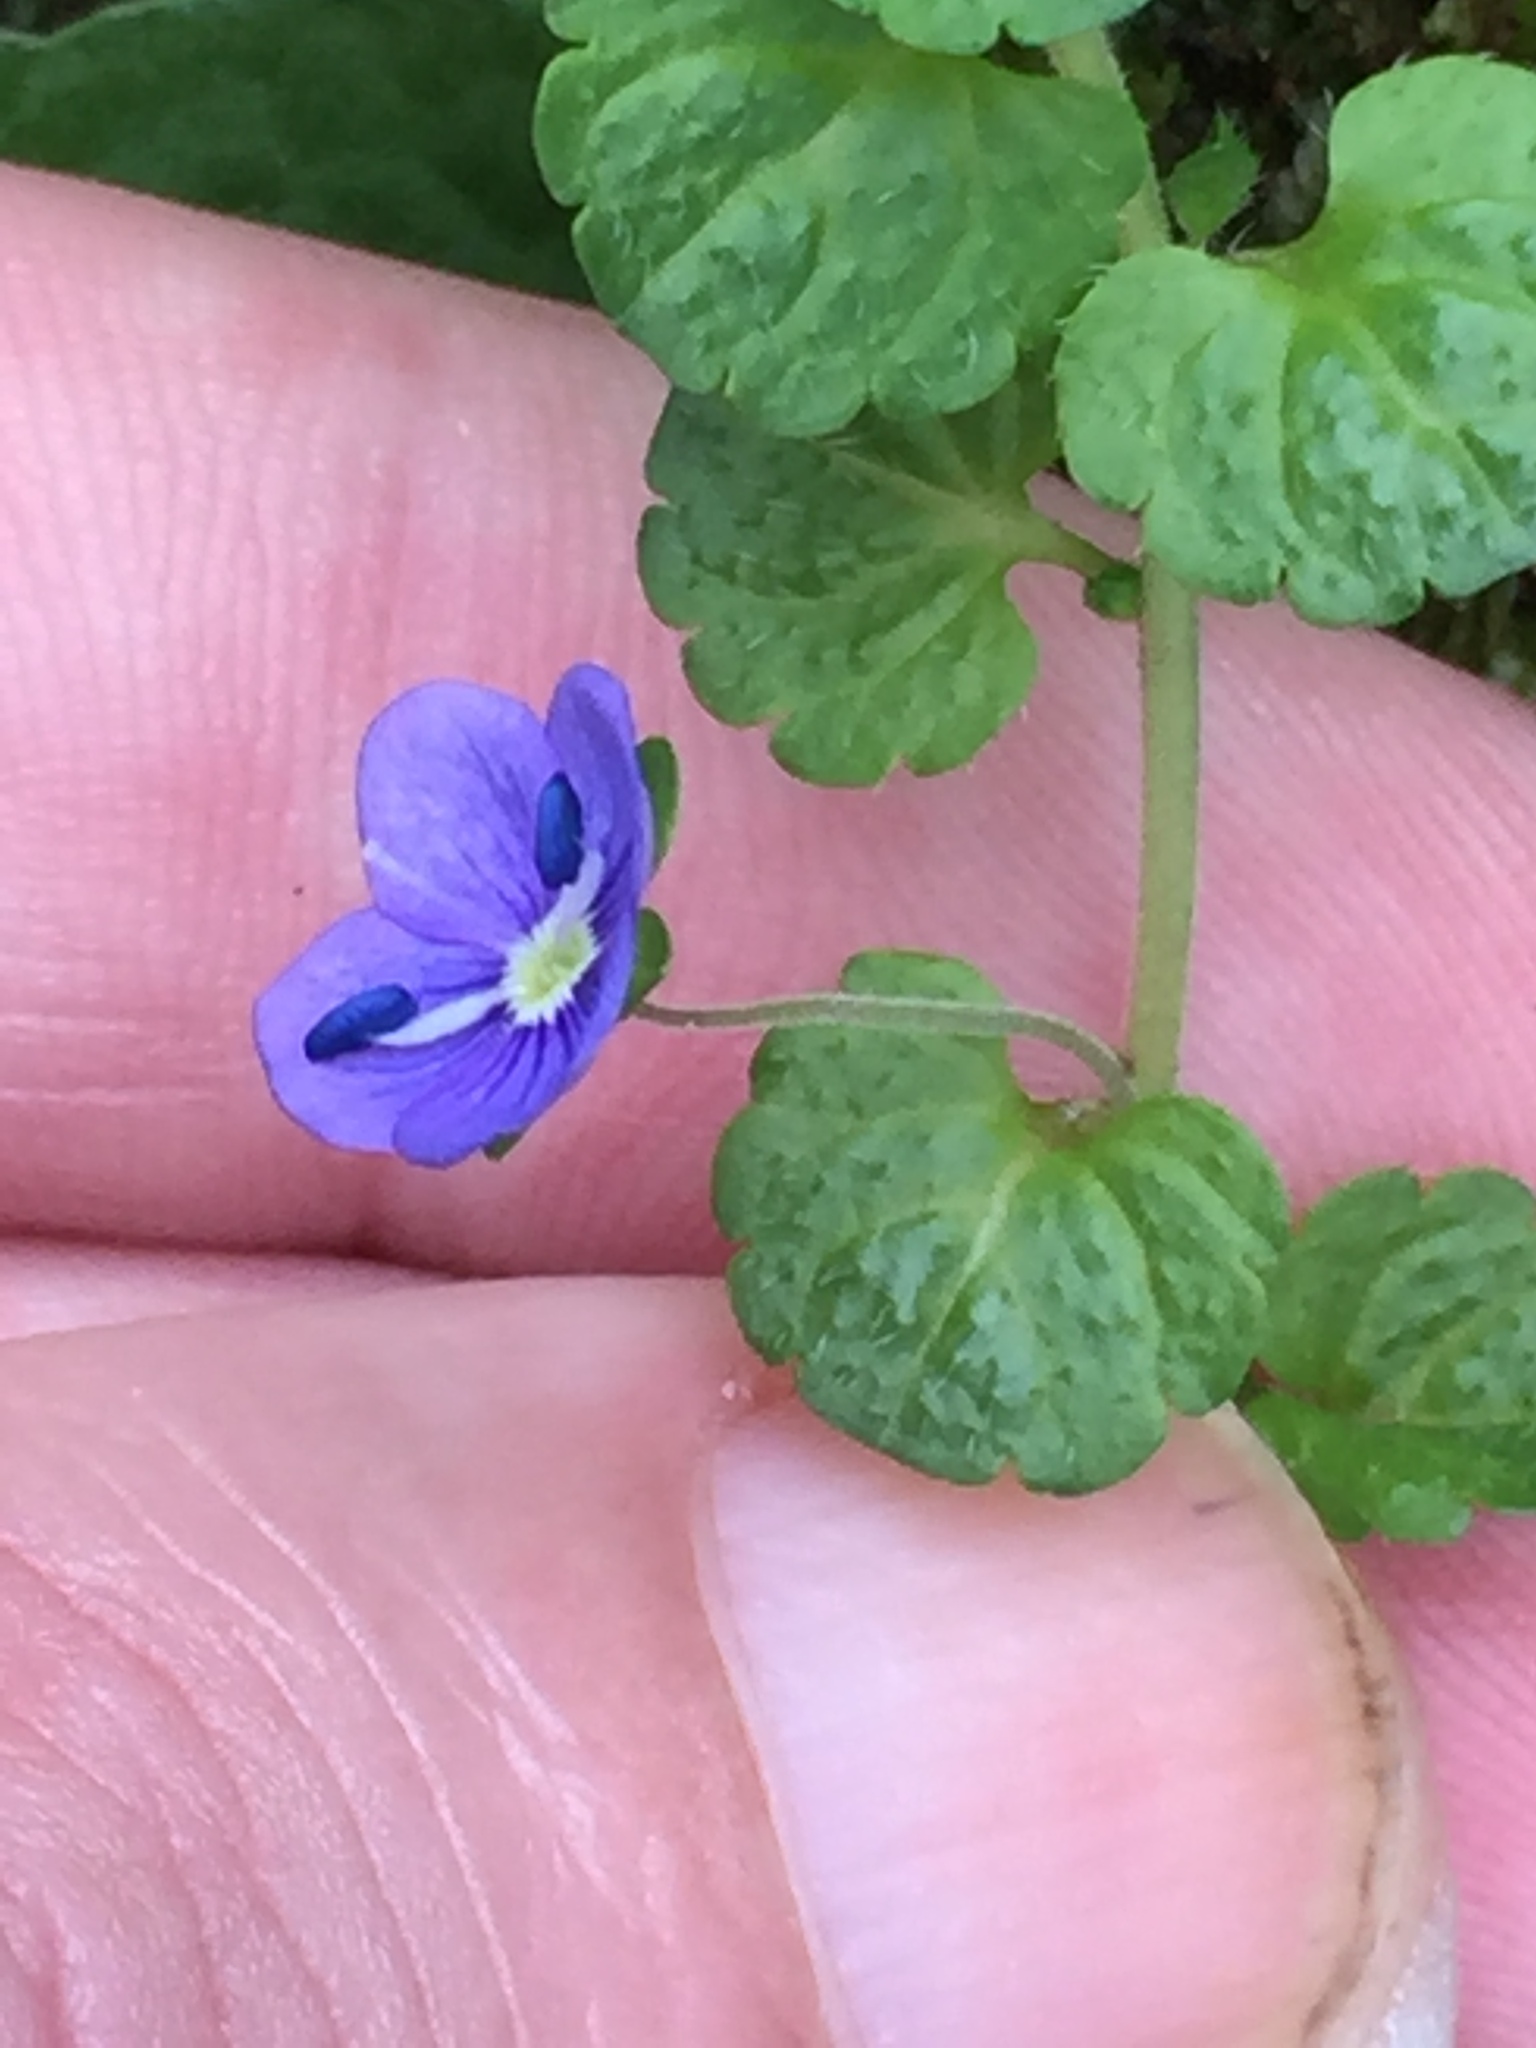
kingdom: Plantae
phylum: Tracheophyta
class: Magnoliopsida
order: Lamiales
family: Plantaginaceae
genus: Veronica
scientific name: Veronica filiformis
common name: Slender speedwell
